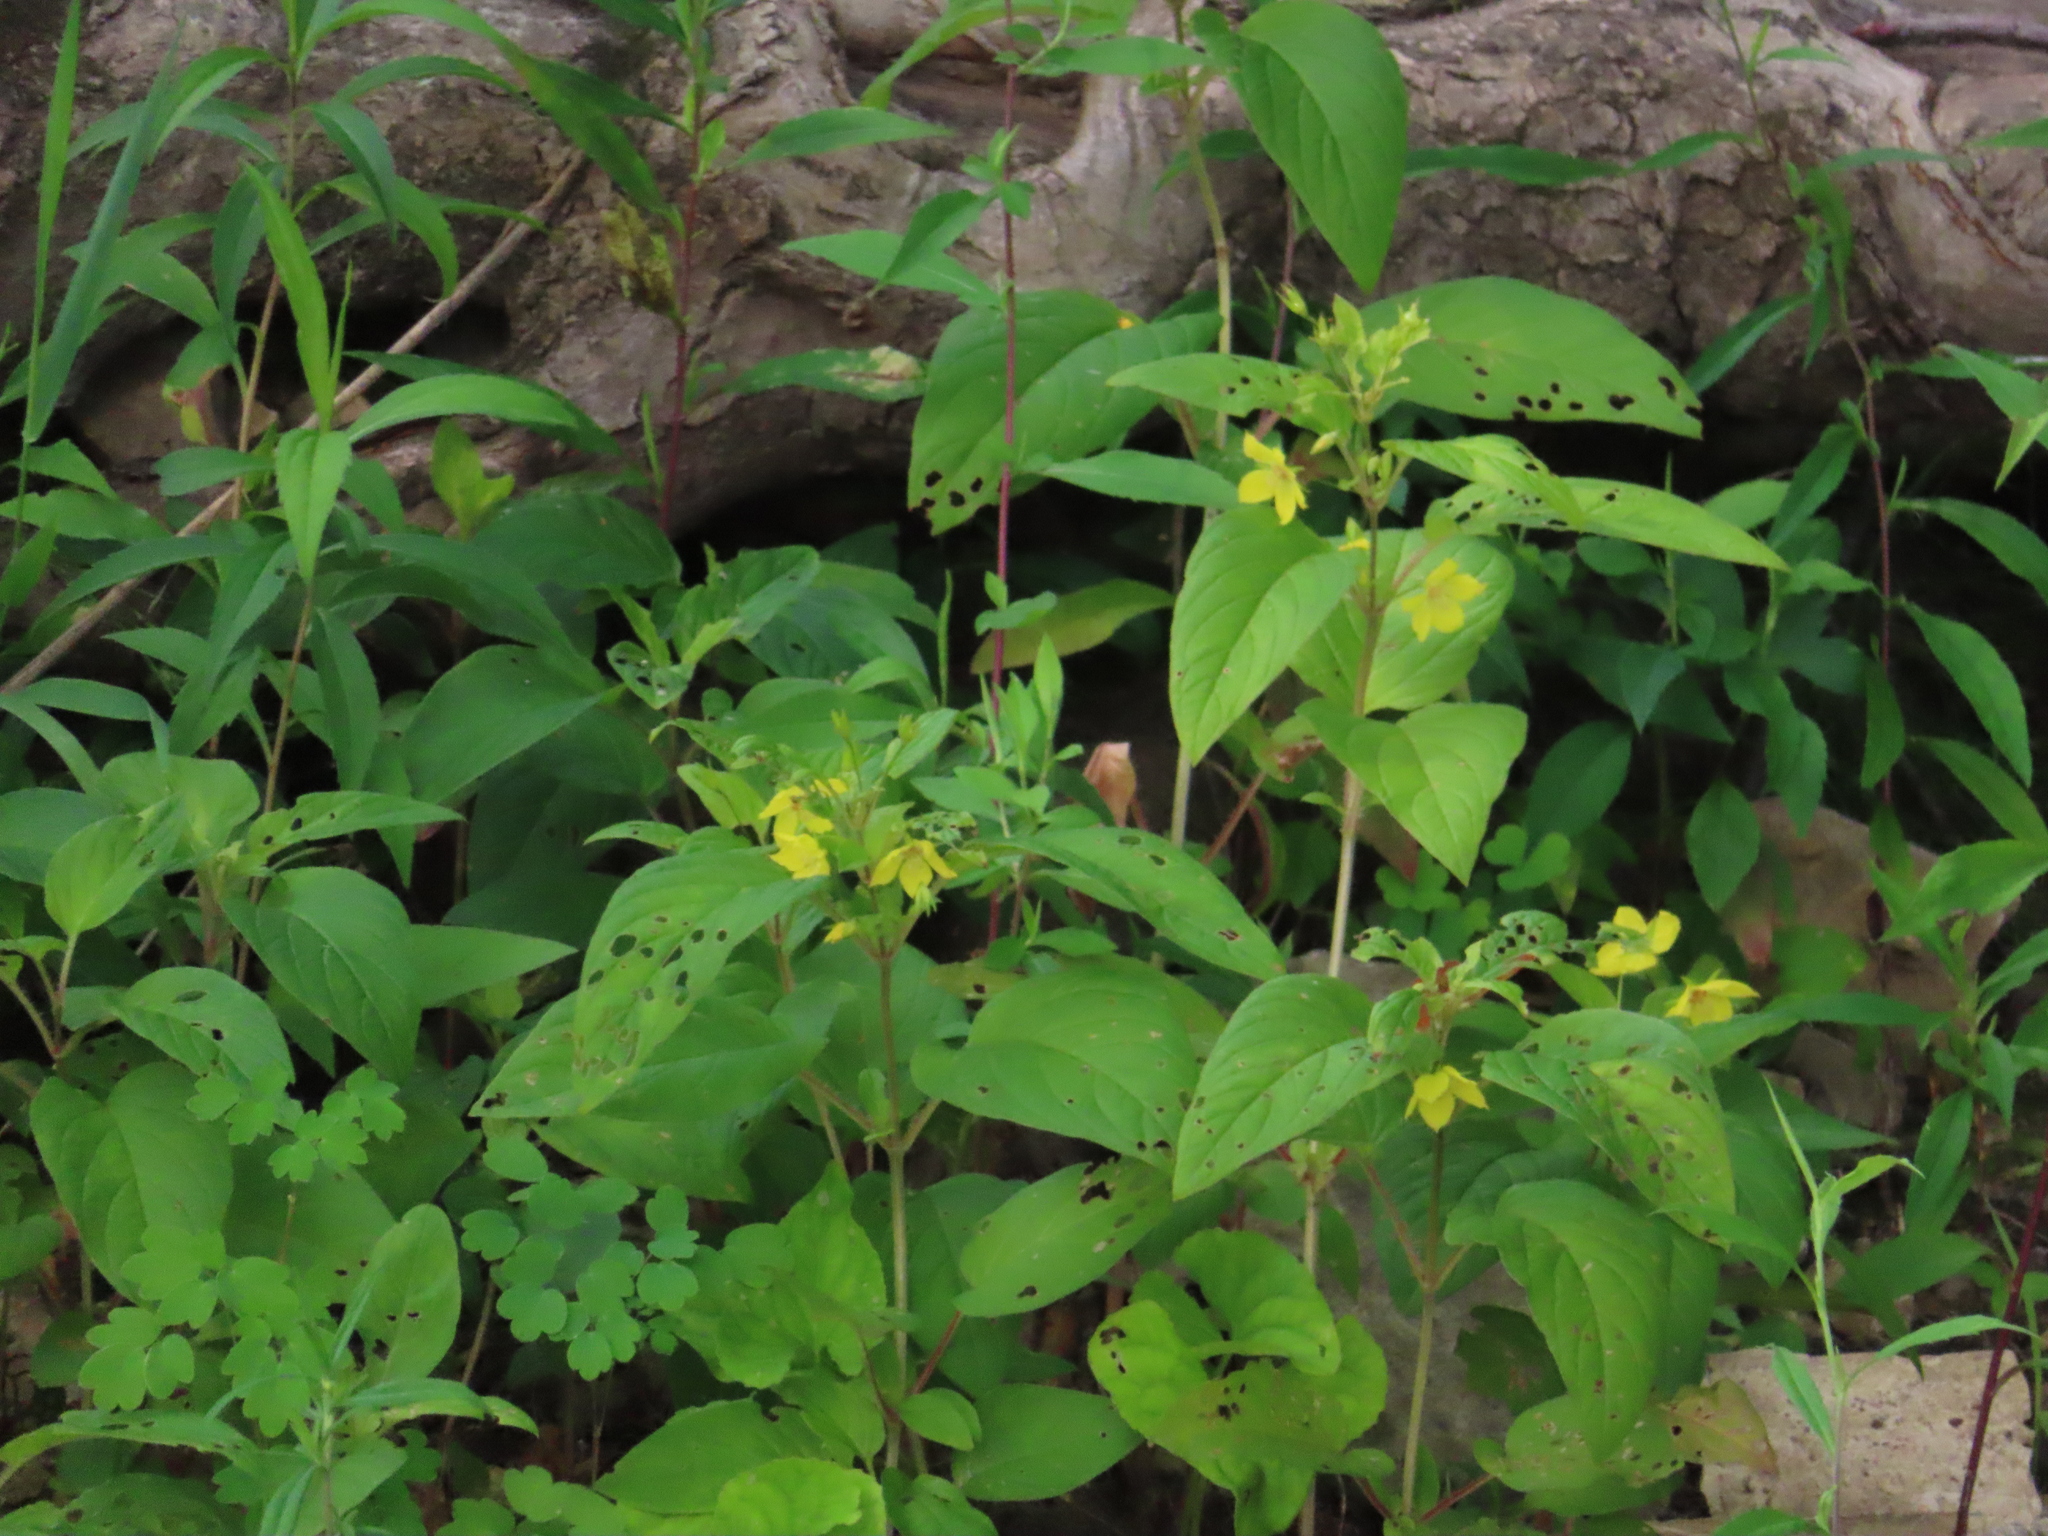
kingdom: Plantae
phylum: Tracheophyta
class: Magnoliopsida
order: Ericales
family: Primulaceae
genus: Lysimachia
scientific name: Lysimachia ciliata
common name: Fringed loosestrife
